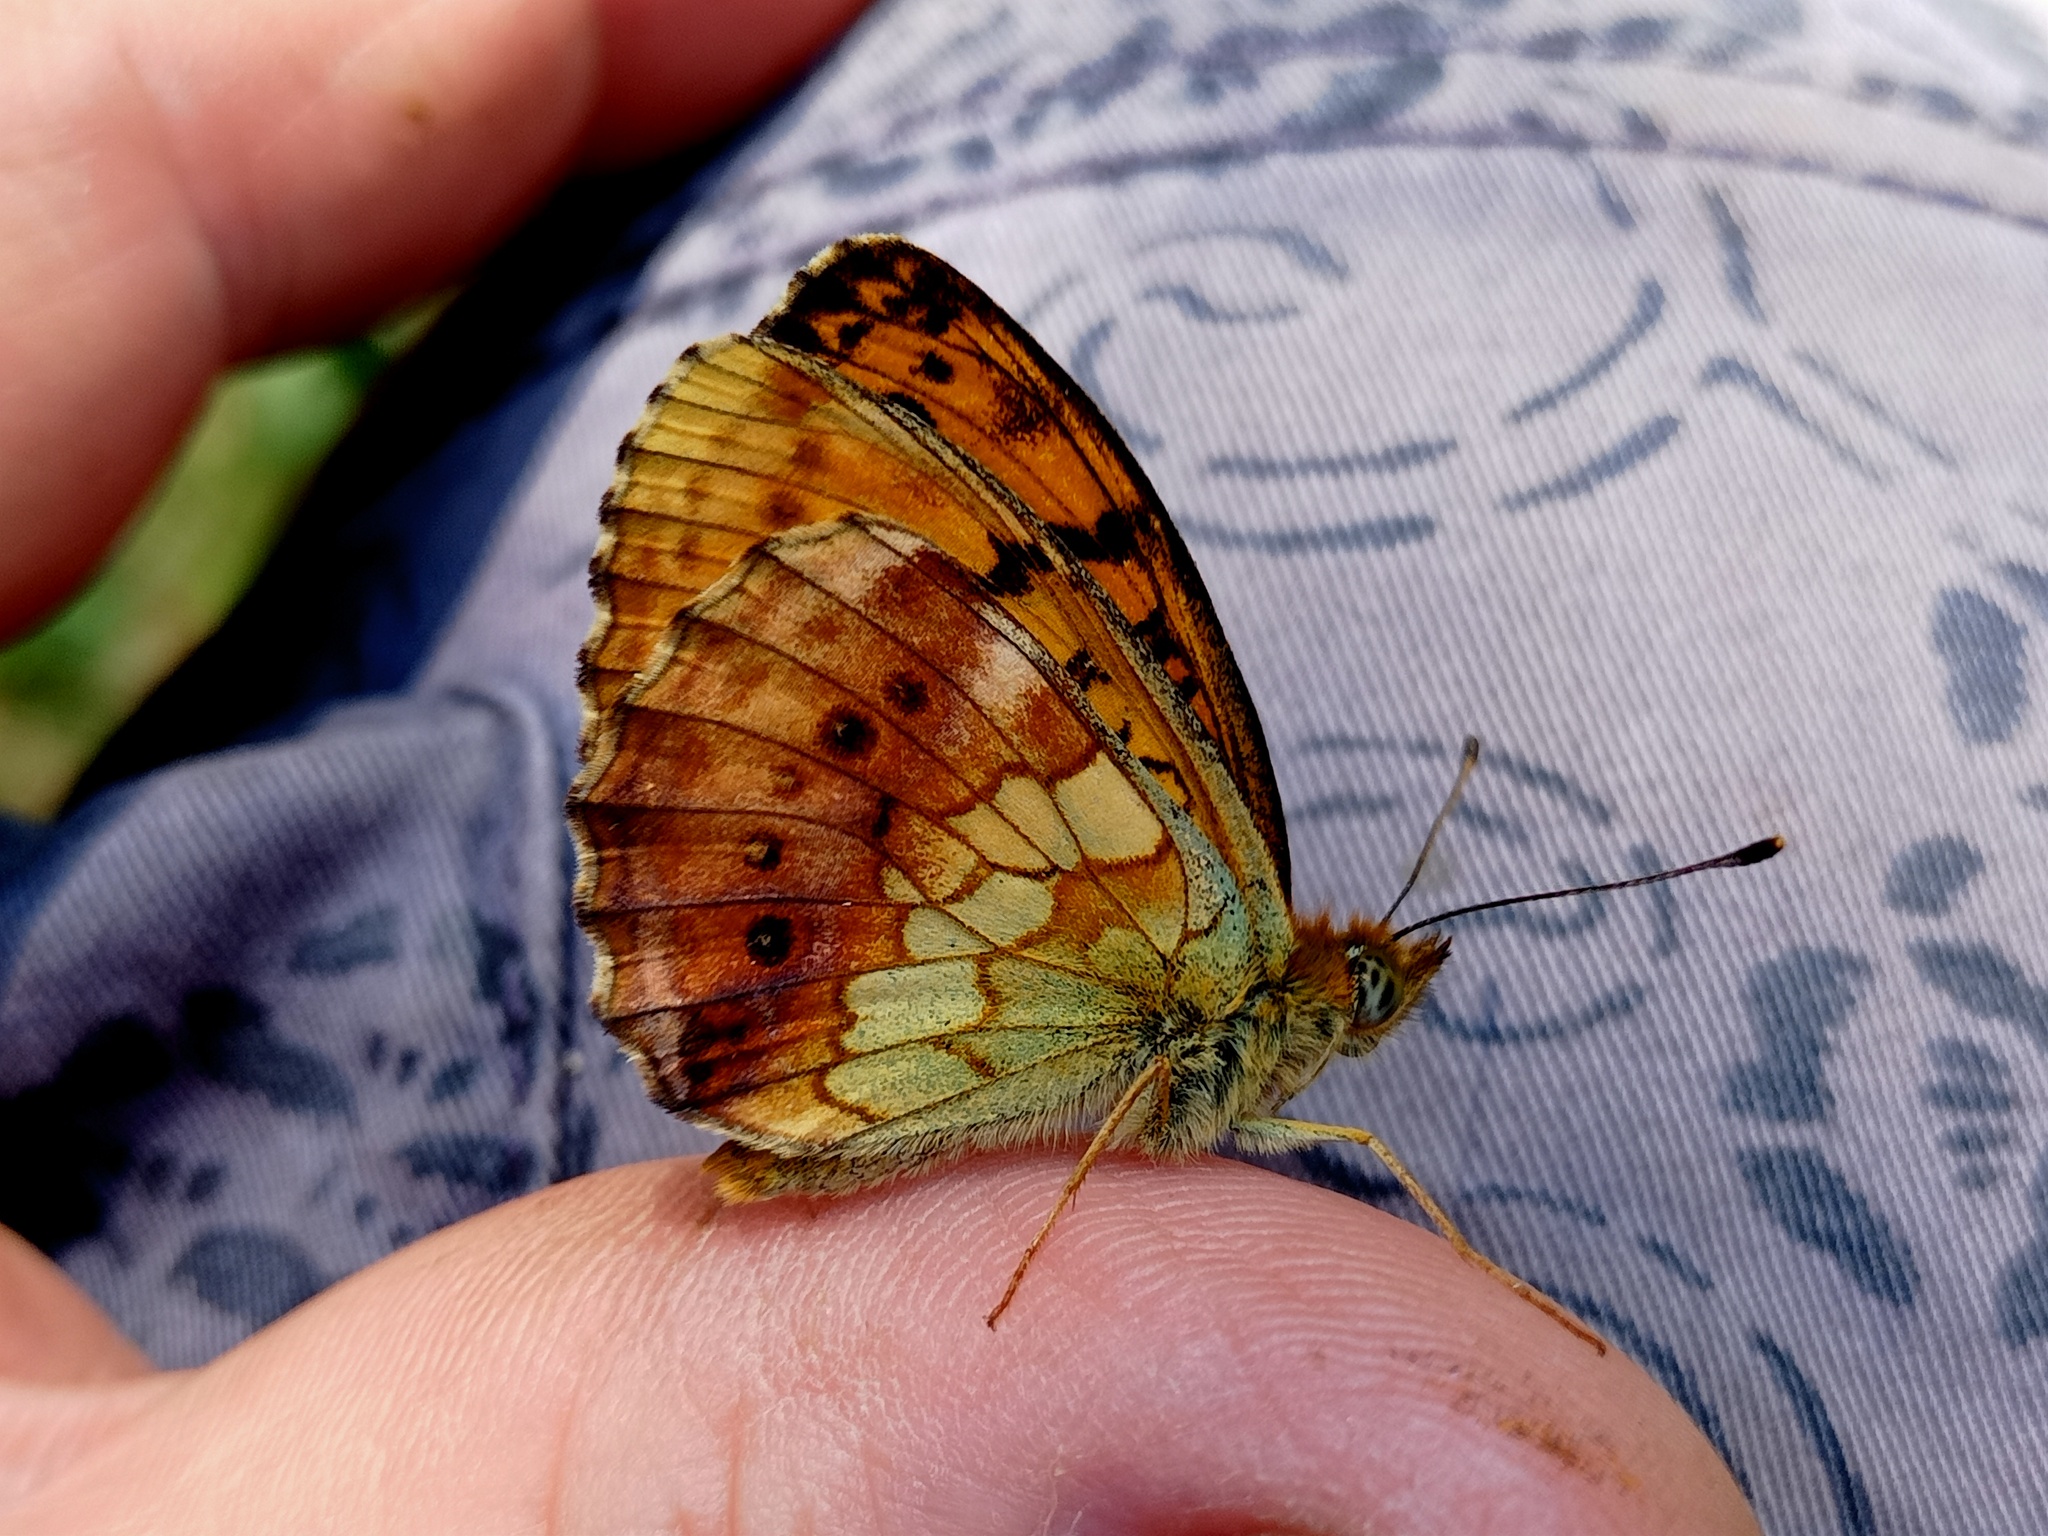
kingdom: Animalia
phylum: Arthropoda
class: Insecta
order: Lepidoptera
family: Nymphalidae
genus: Brenthis
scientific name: Brenthis daphne
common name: Marbled fritillary
